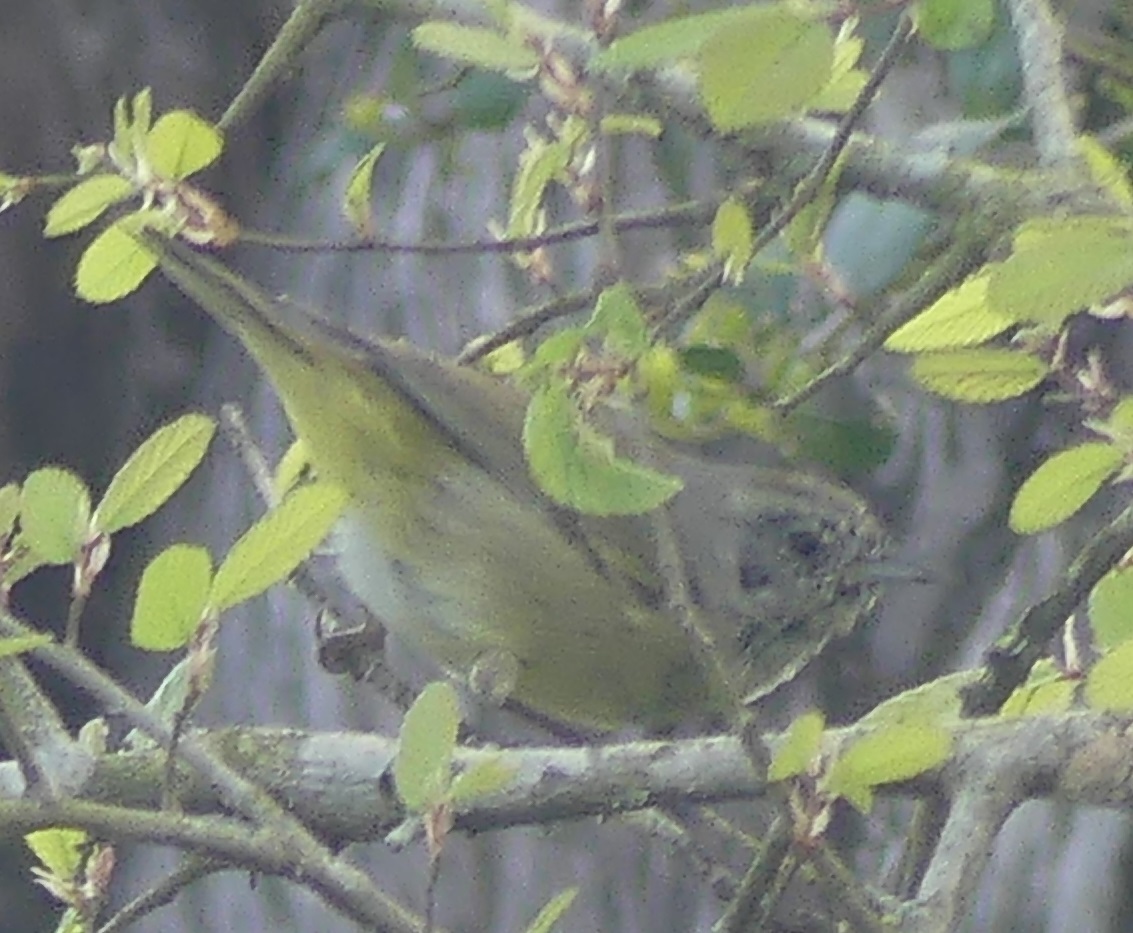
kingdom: Animalia
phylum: Chordata
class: Aves
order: Passeriformes
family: Parulidae
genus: Leiothlypis
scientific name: Leiothlypis celata
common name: Orange-crowned warbler
